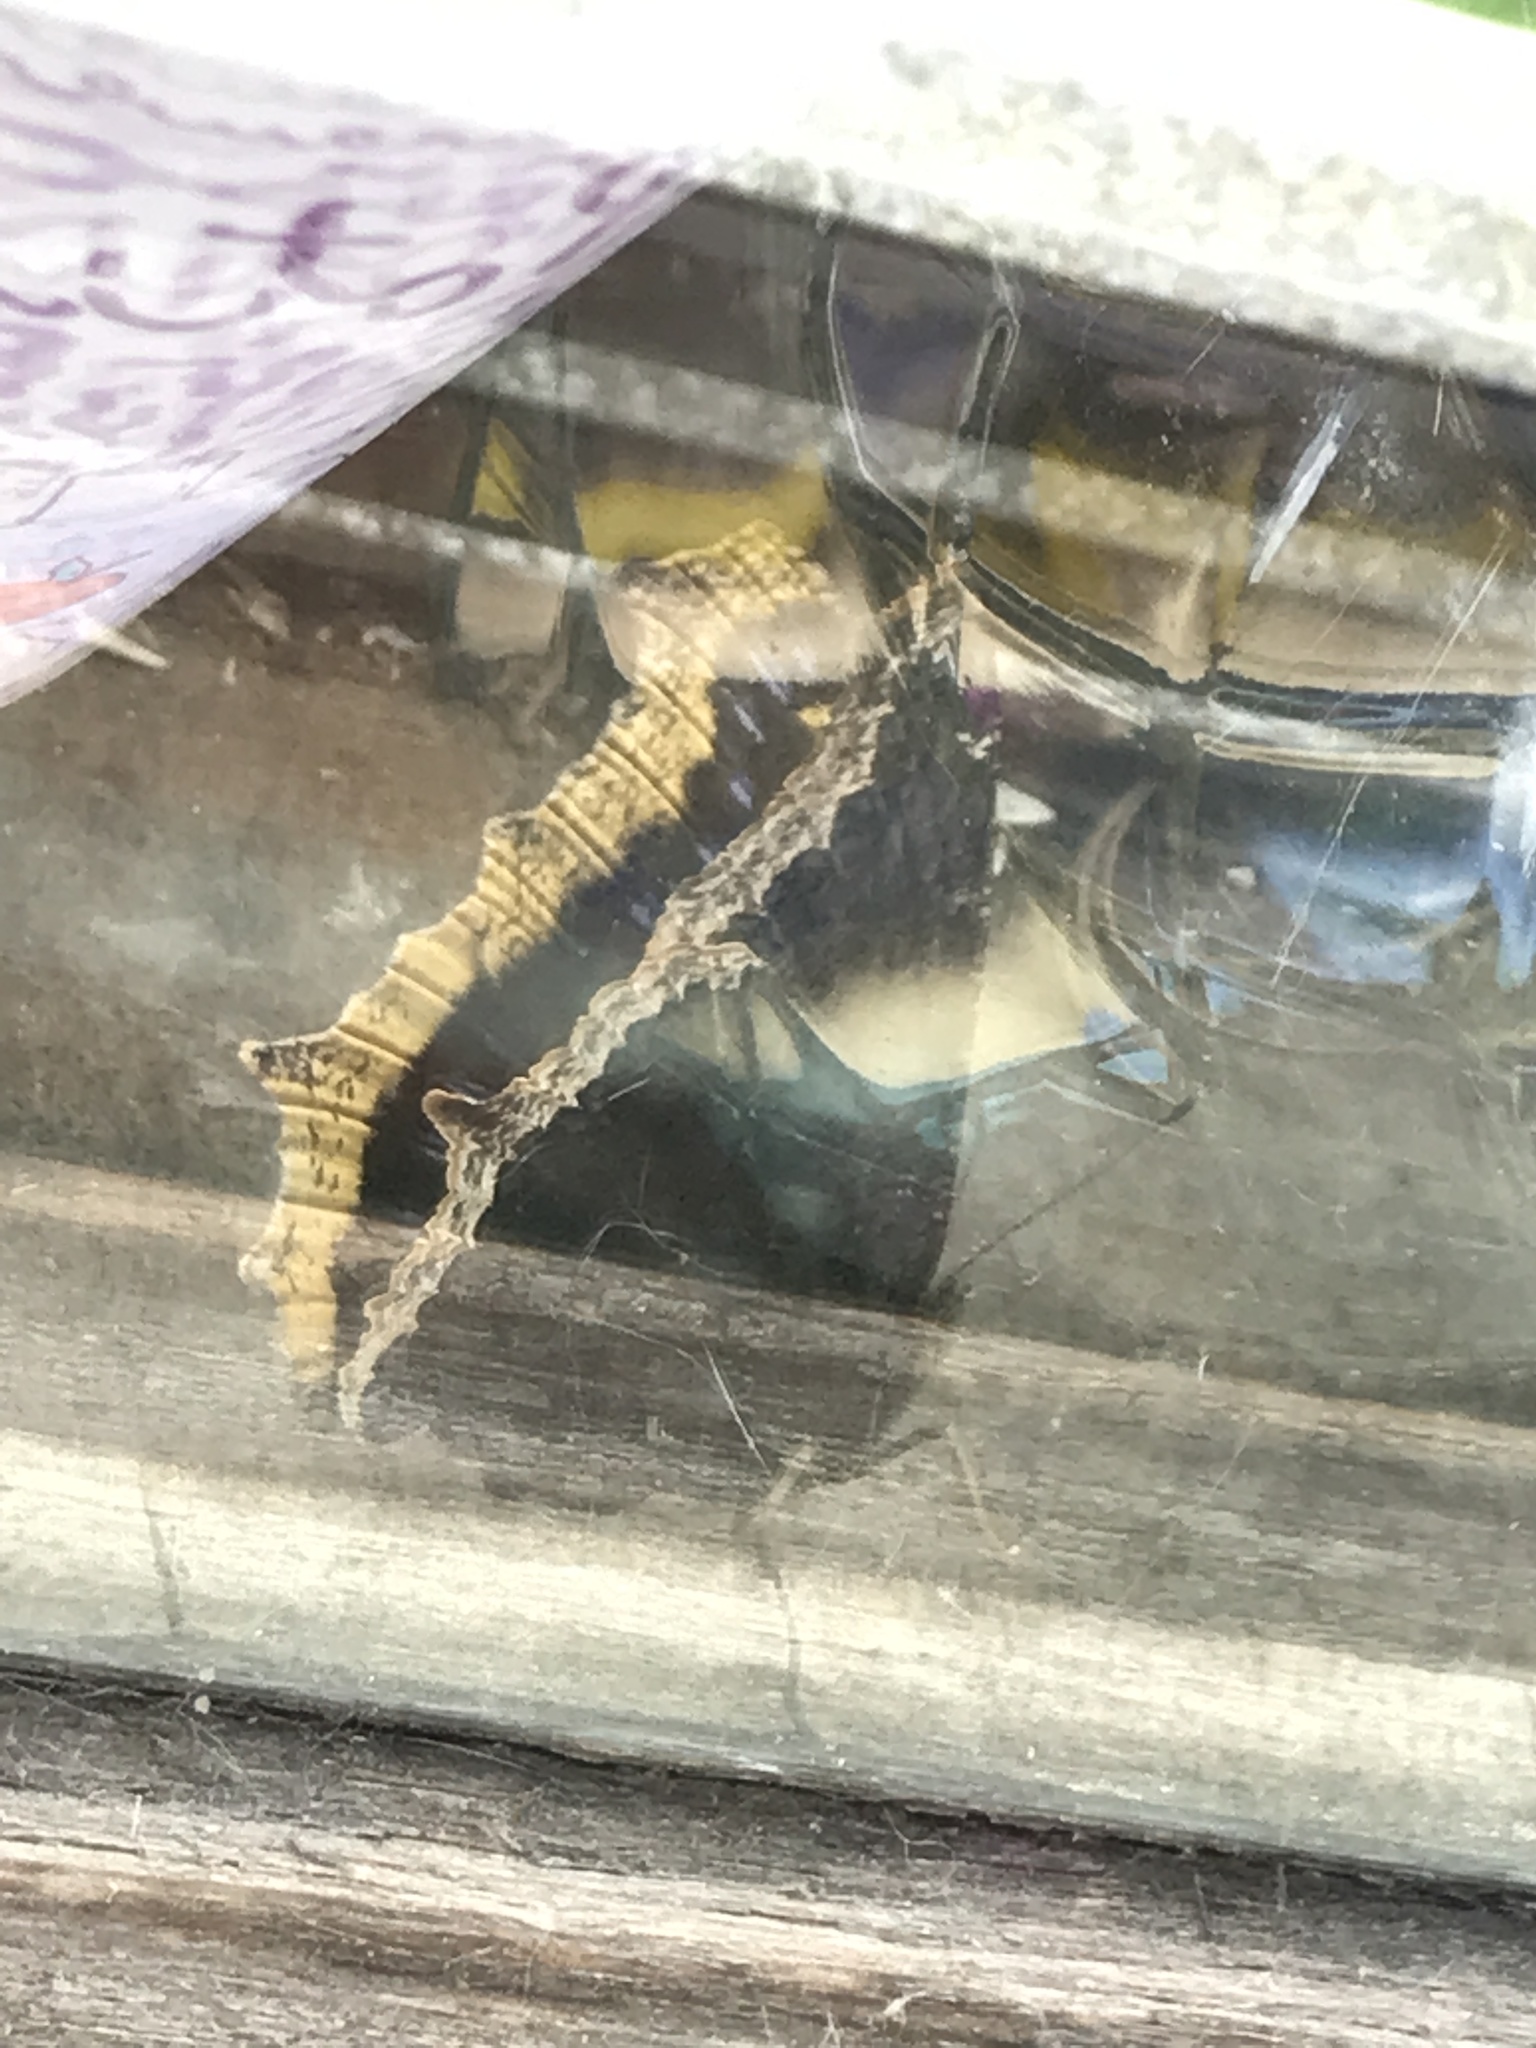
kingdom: Animalia
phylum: Arthropoda
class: Insecta
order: Lepidoptera
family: Nymphalidae
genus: Nymphalis
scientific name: Nymphalis antiopa
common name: Camberwell beauty
